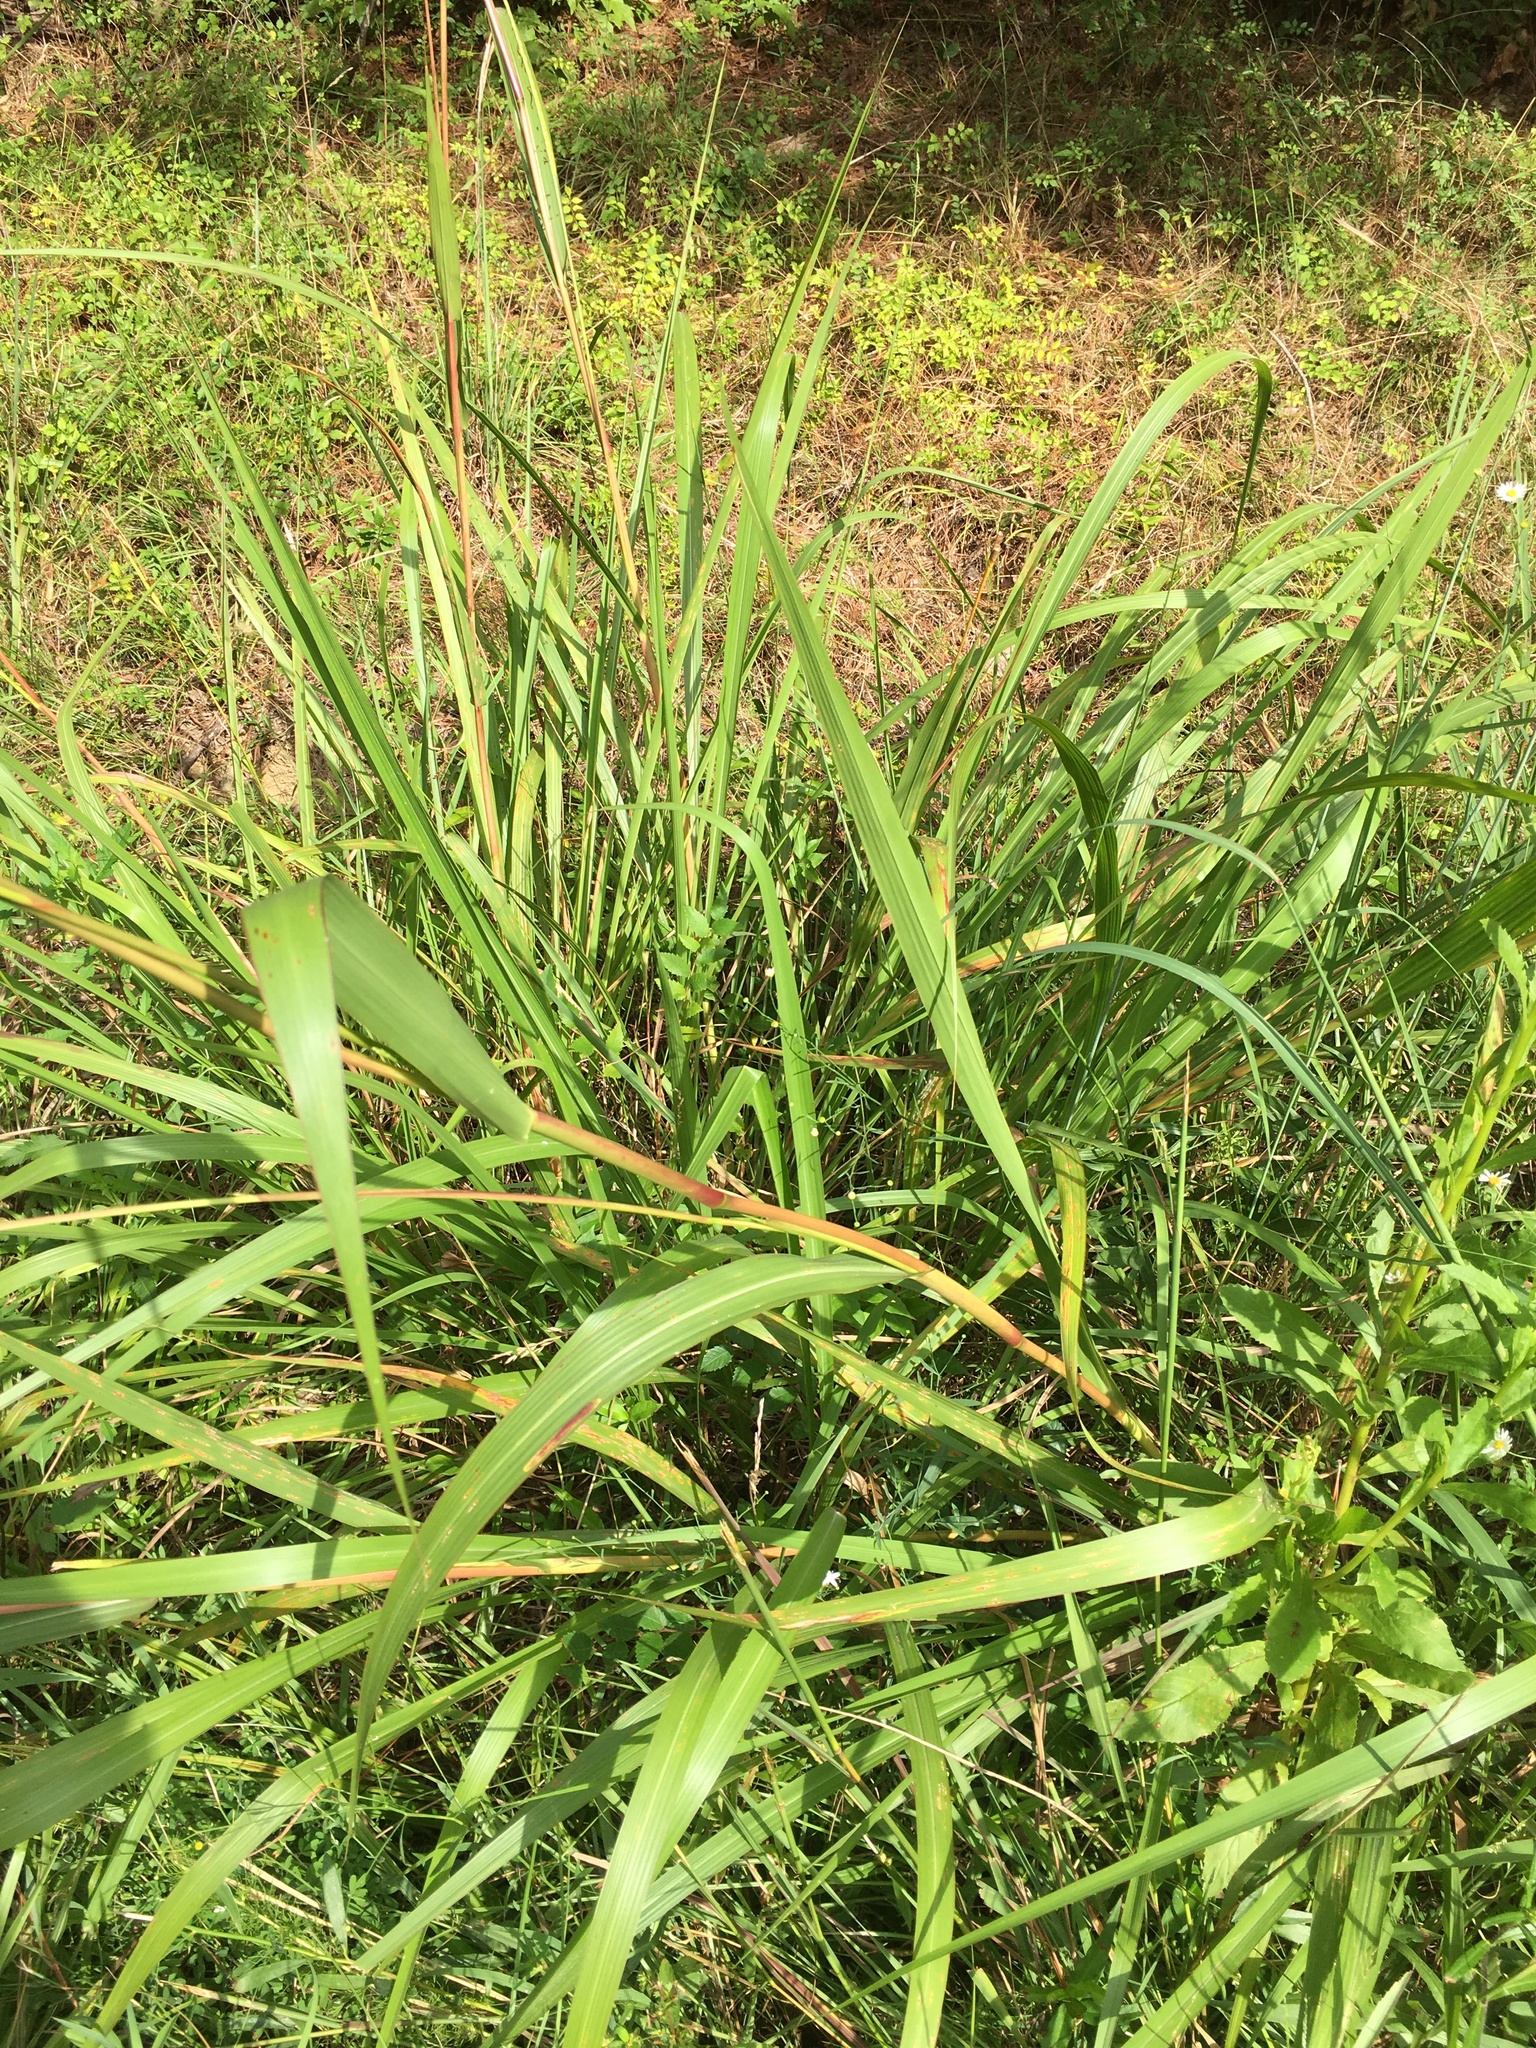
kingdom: Plantae
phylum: Tracheophyta
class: Liliopsida
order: Poales
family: Poaceae
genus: Tripsacum
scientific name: Tripsacum dactyloides
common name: Buffalo-grass
